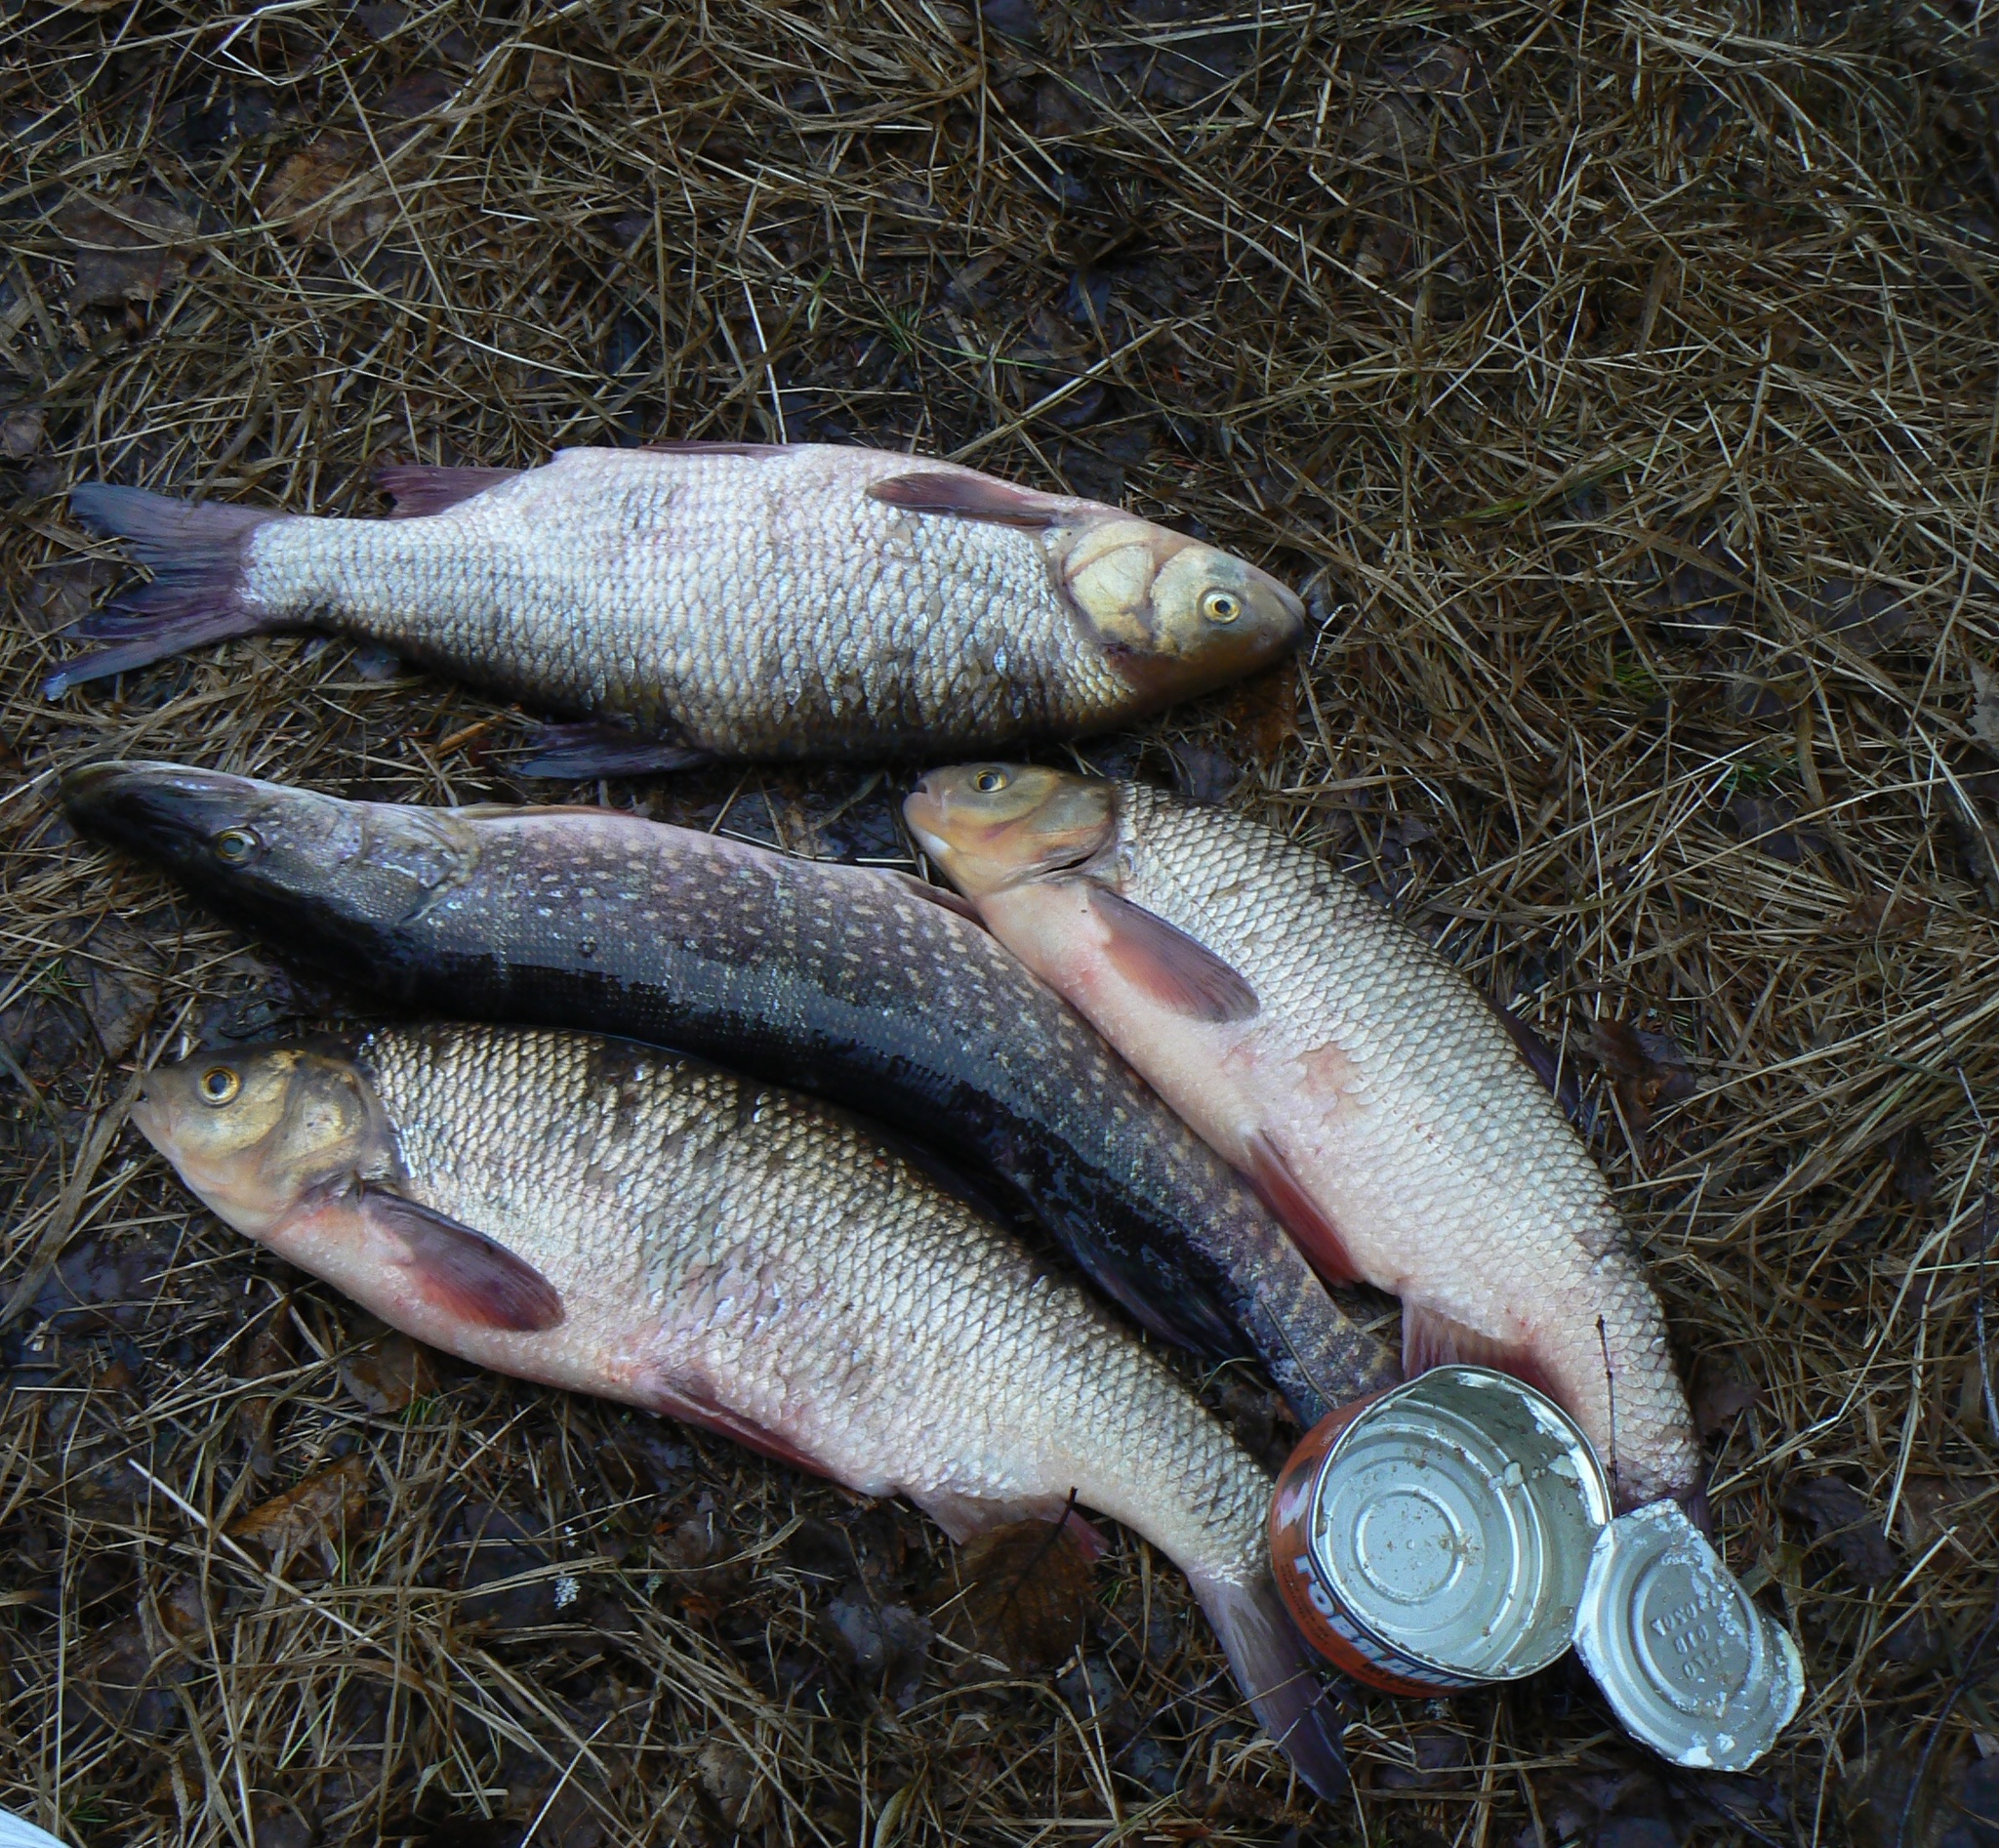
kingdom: Animalia
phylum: Chordata
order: Cypriniformes
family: Cyprinidae
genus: Leuciscus
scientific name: Leuciscus idus
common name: Ide
